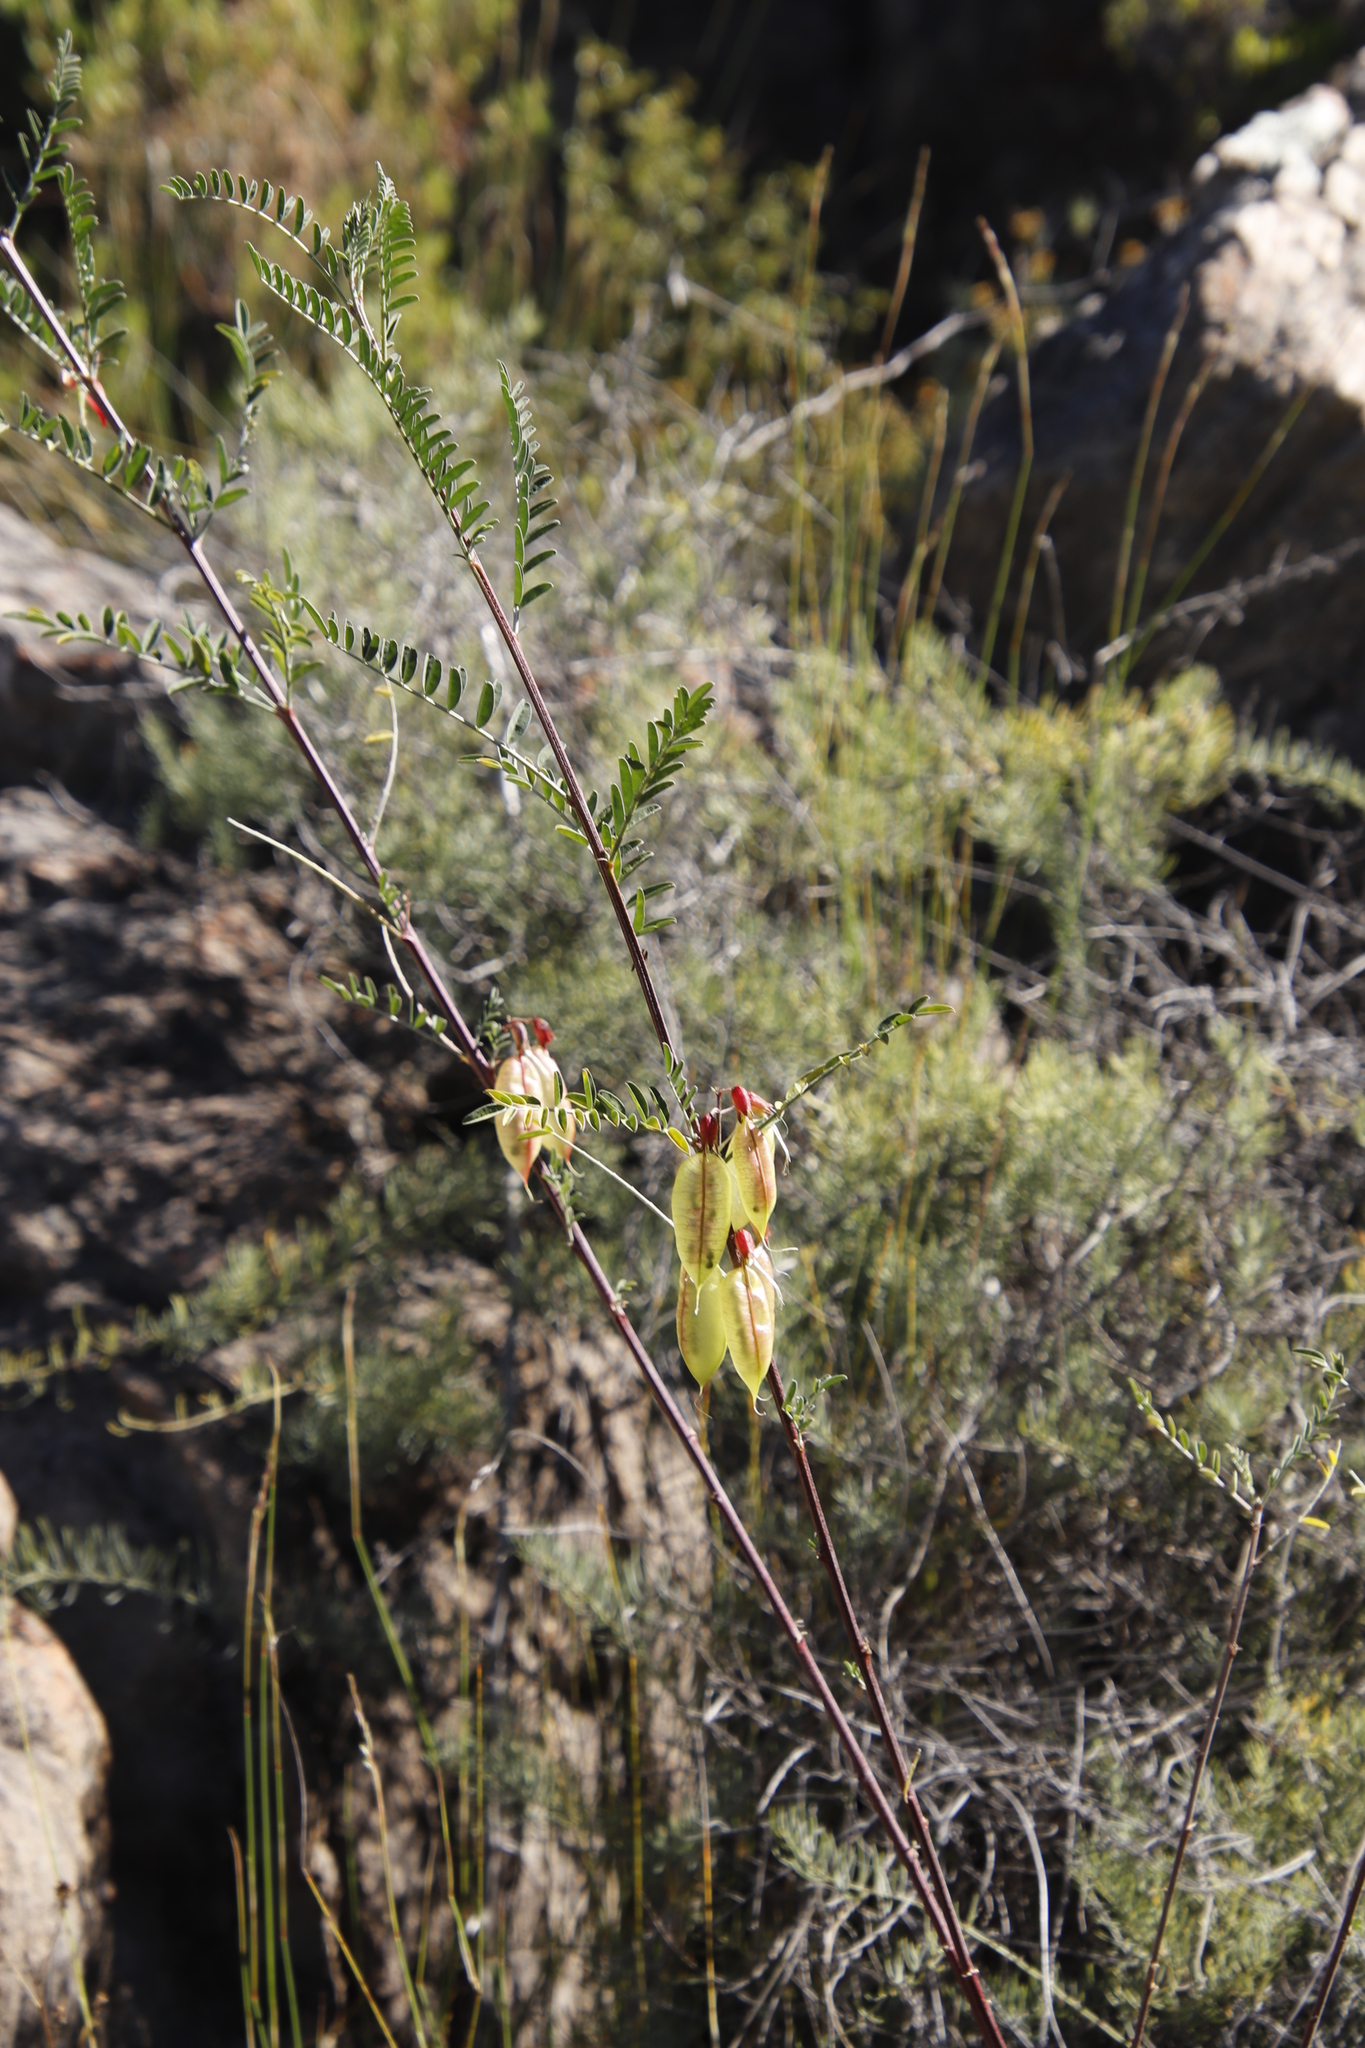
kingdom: Plantae
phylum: Tracheophyta
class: Magnoliopsida
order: Fabales
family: Fabaceae
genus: Lessertia
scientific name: Lessertia frutescens
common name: Balloon-pea
